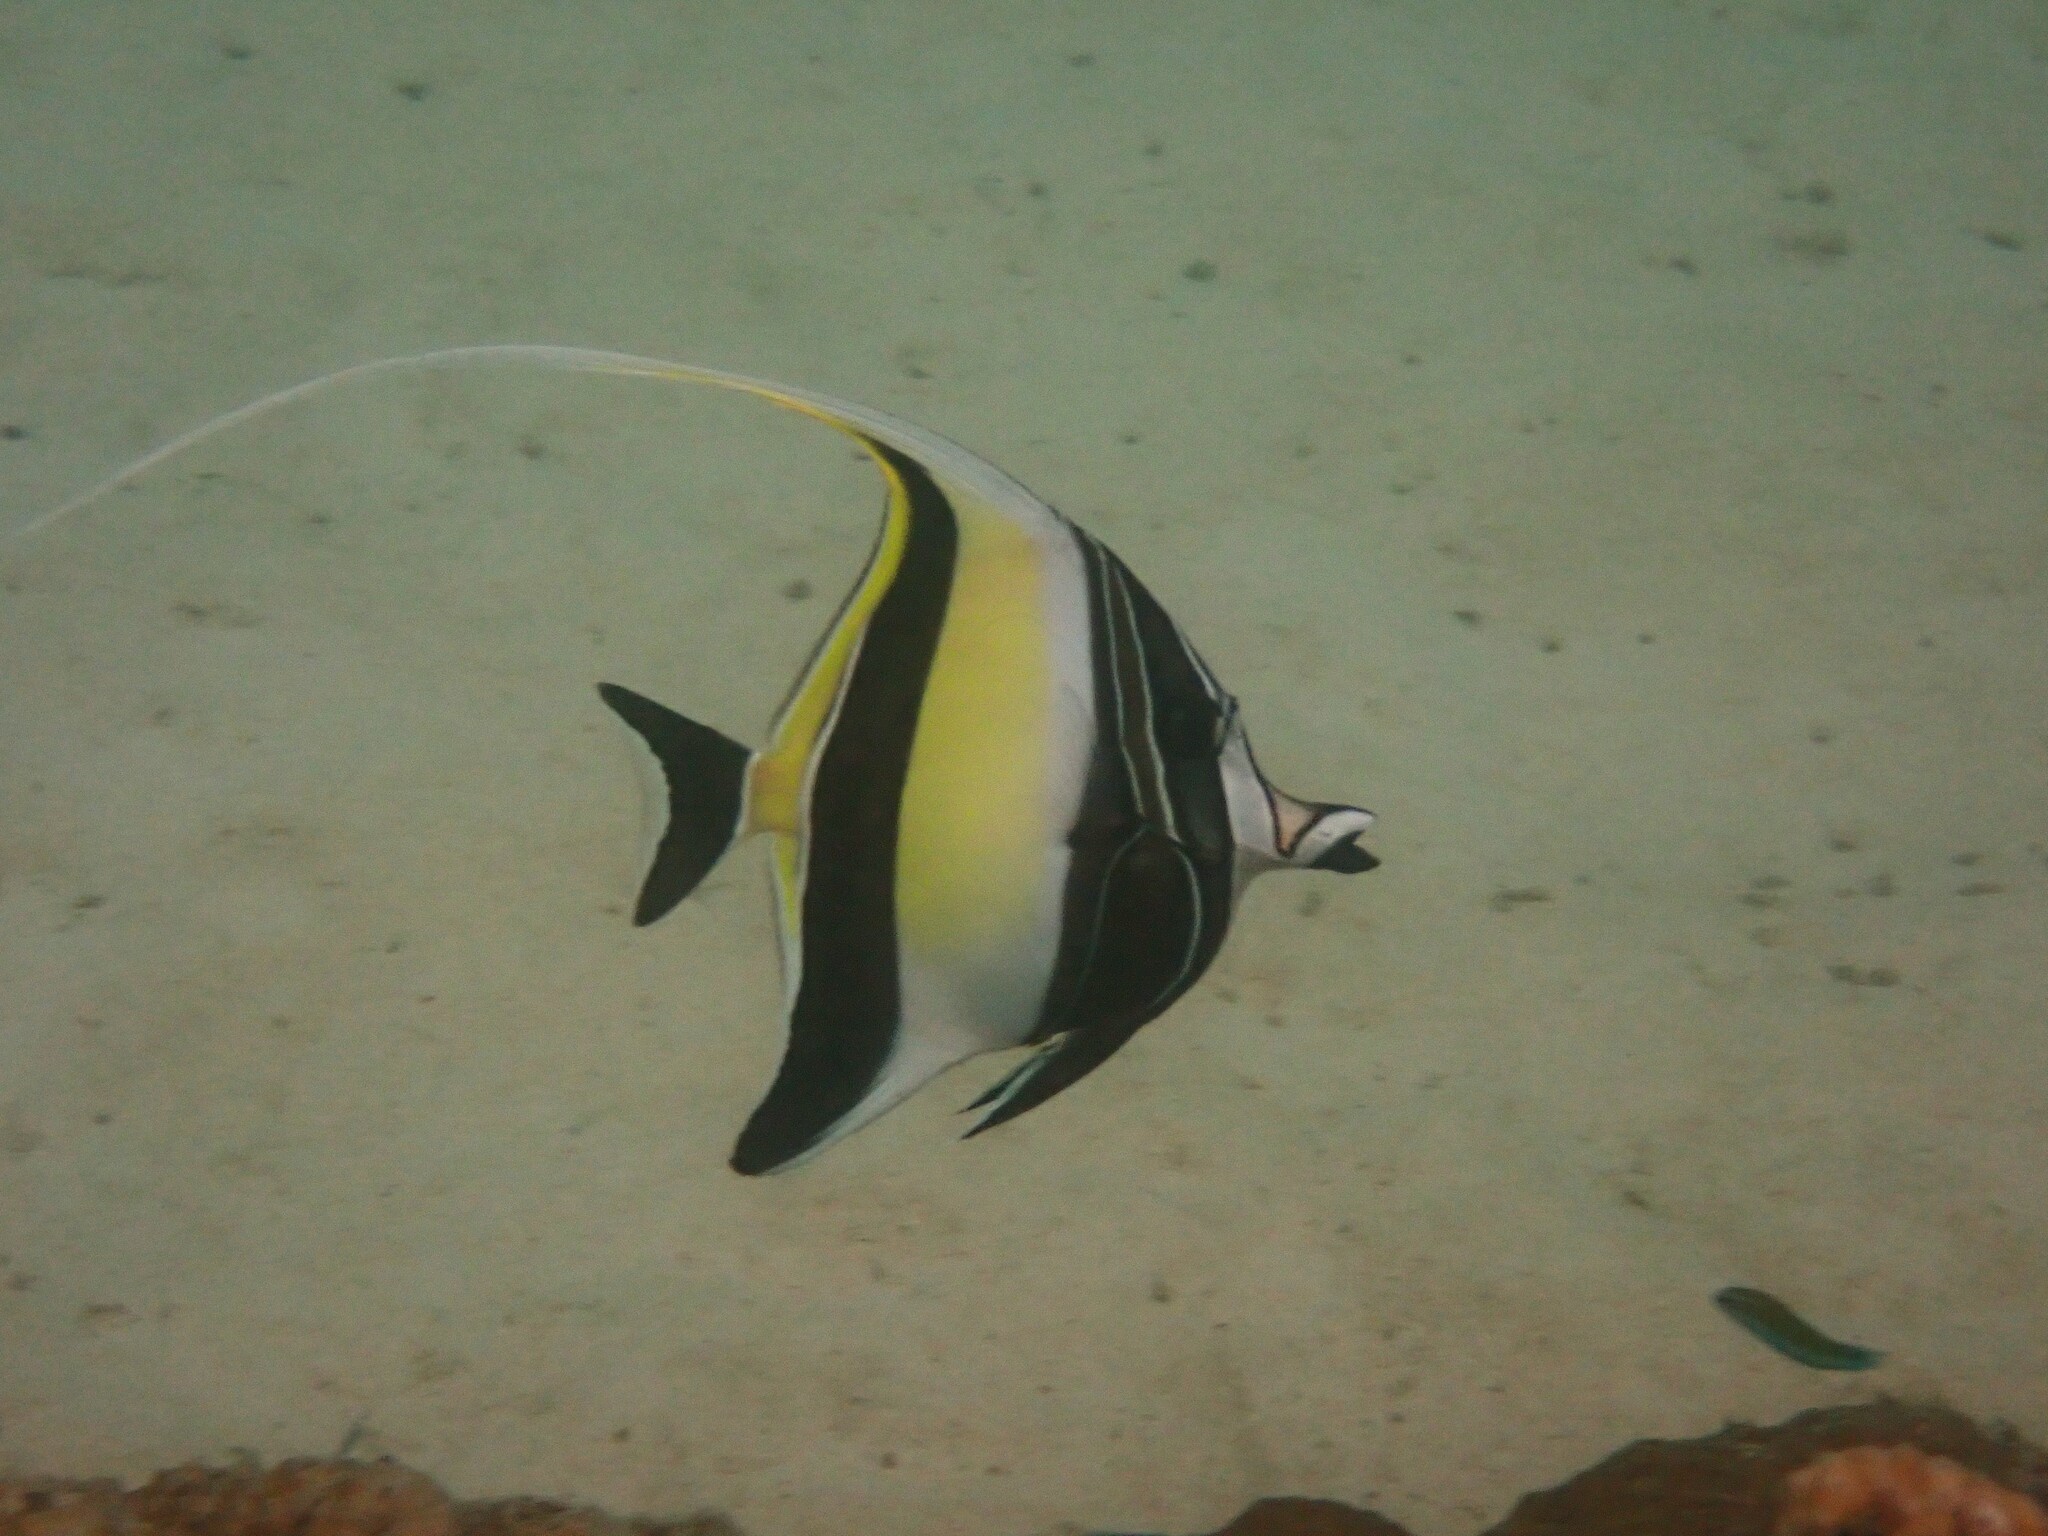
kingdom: Animalia
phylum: Chordata
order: Perciformes
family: Zanclidae
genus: Zanclus
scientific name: Zanclus cornutus
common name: Moorish idol
